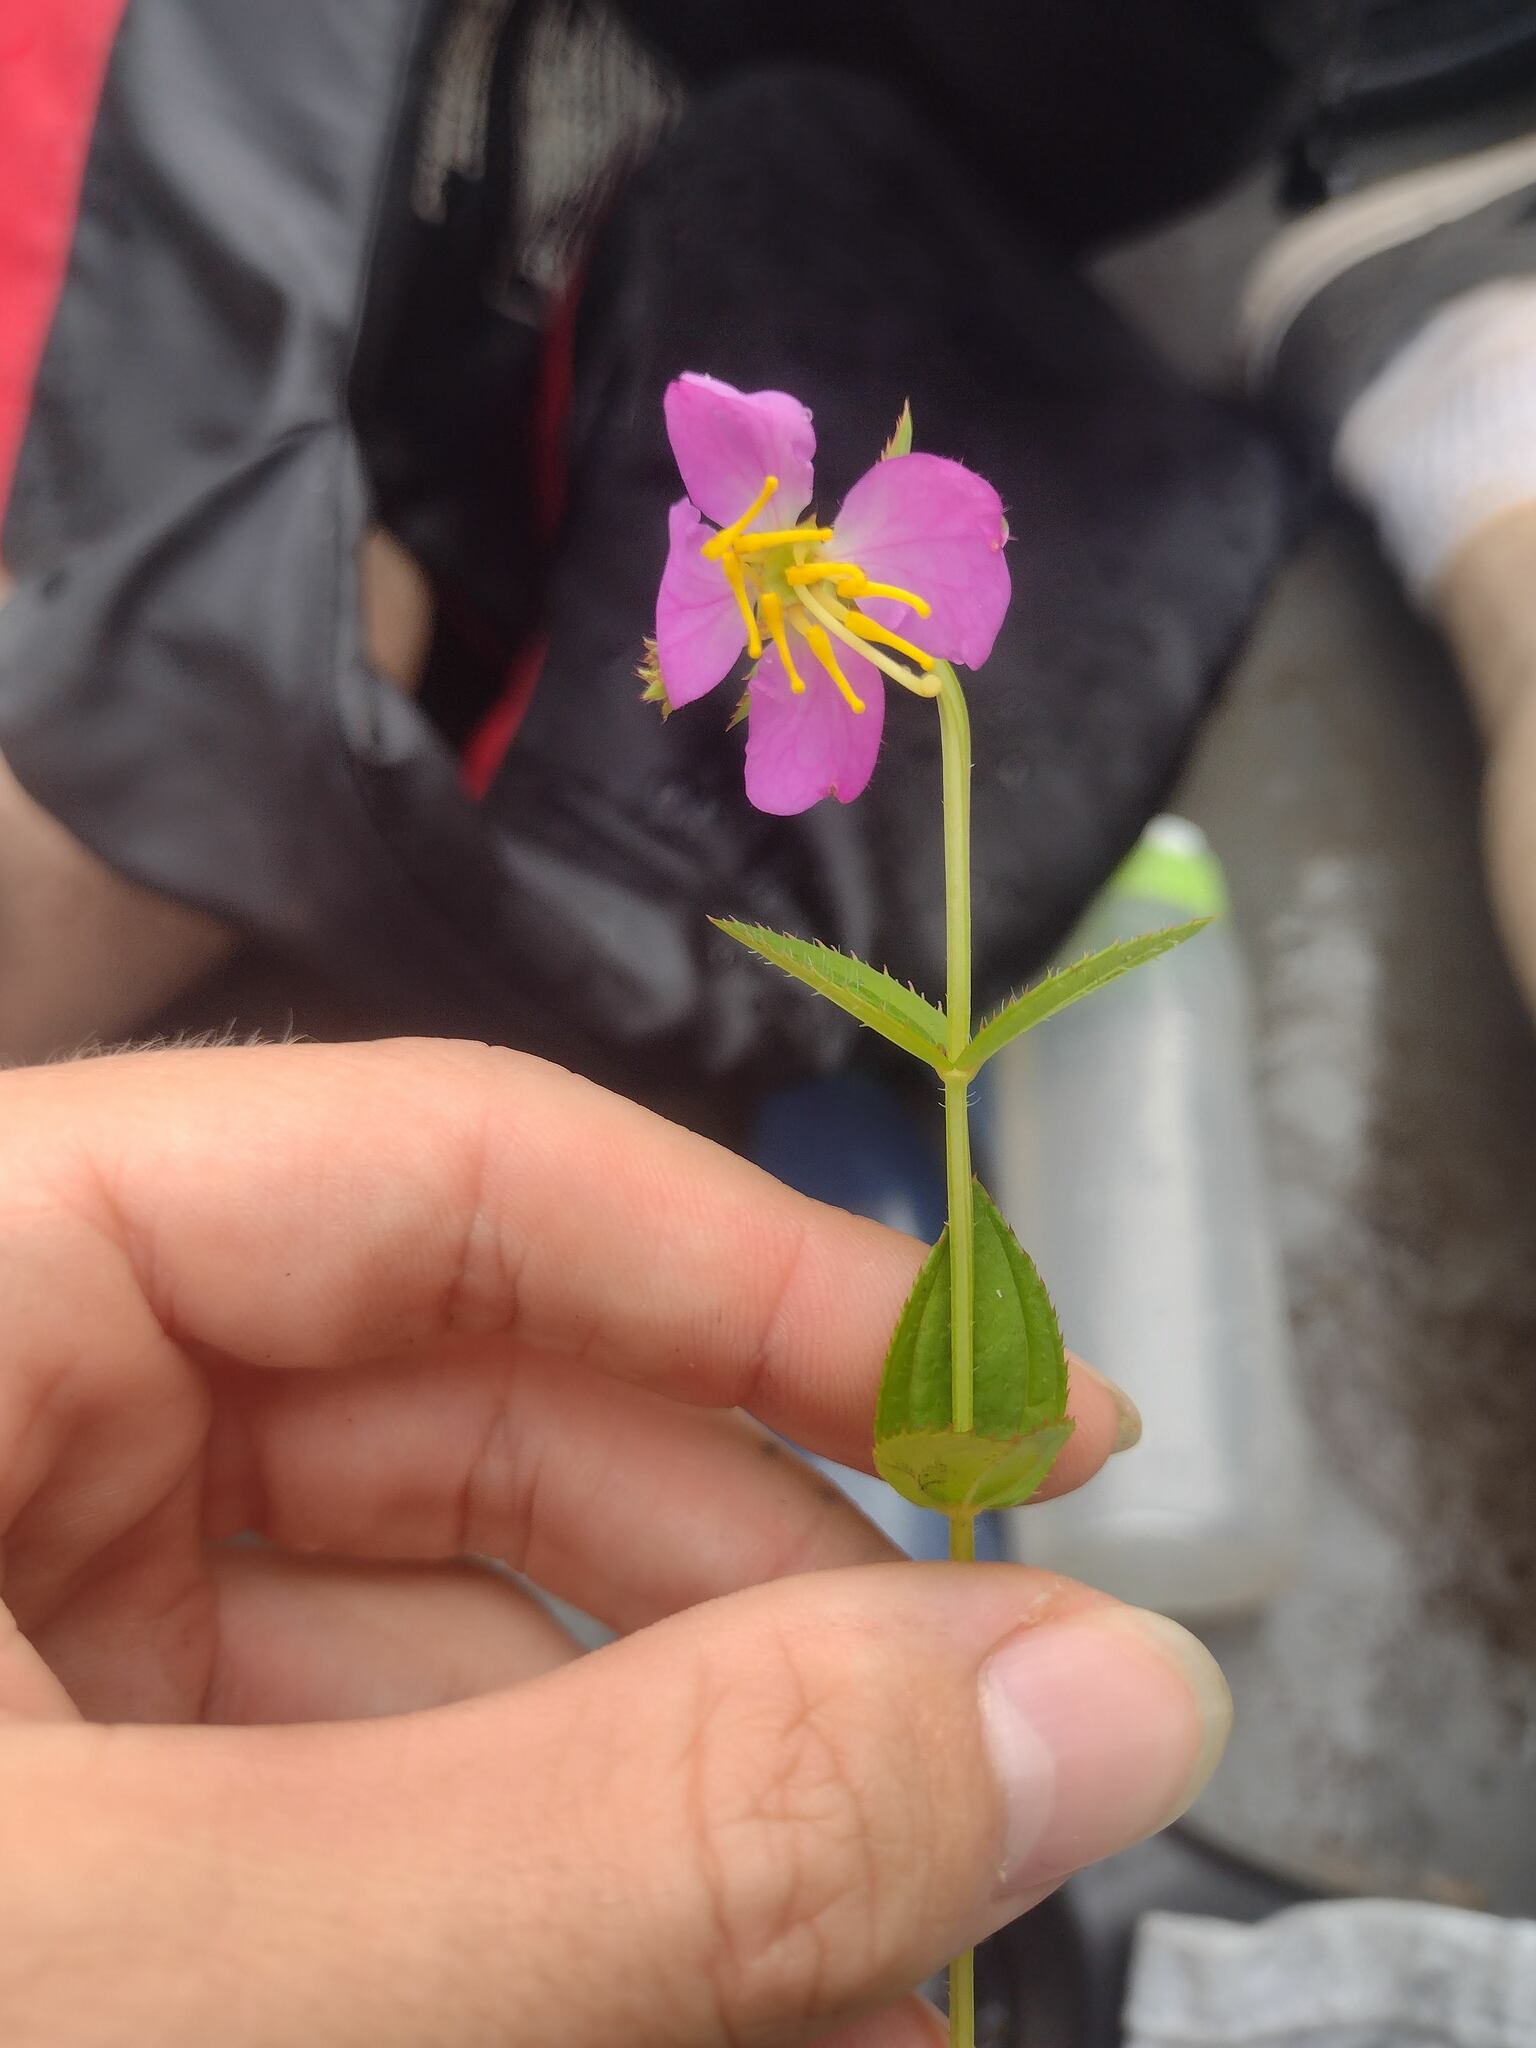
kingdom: Plantae
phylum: Tracheophyta
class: Magnoliopsida
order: Myrtales
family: Melastomataceae
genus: Rhexia
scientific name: Rhexia virginica
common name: Common meadow beauty
